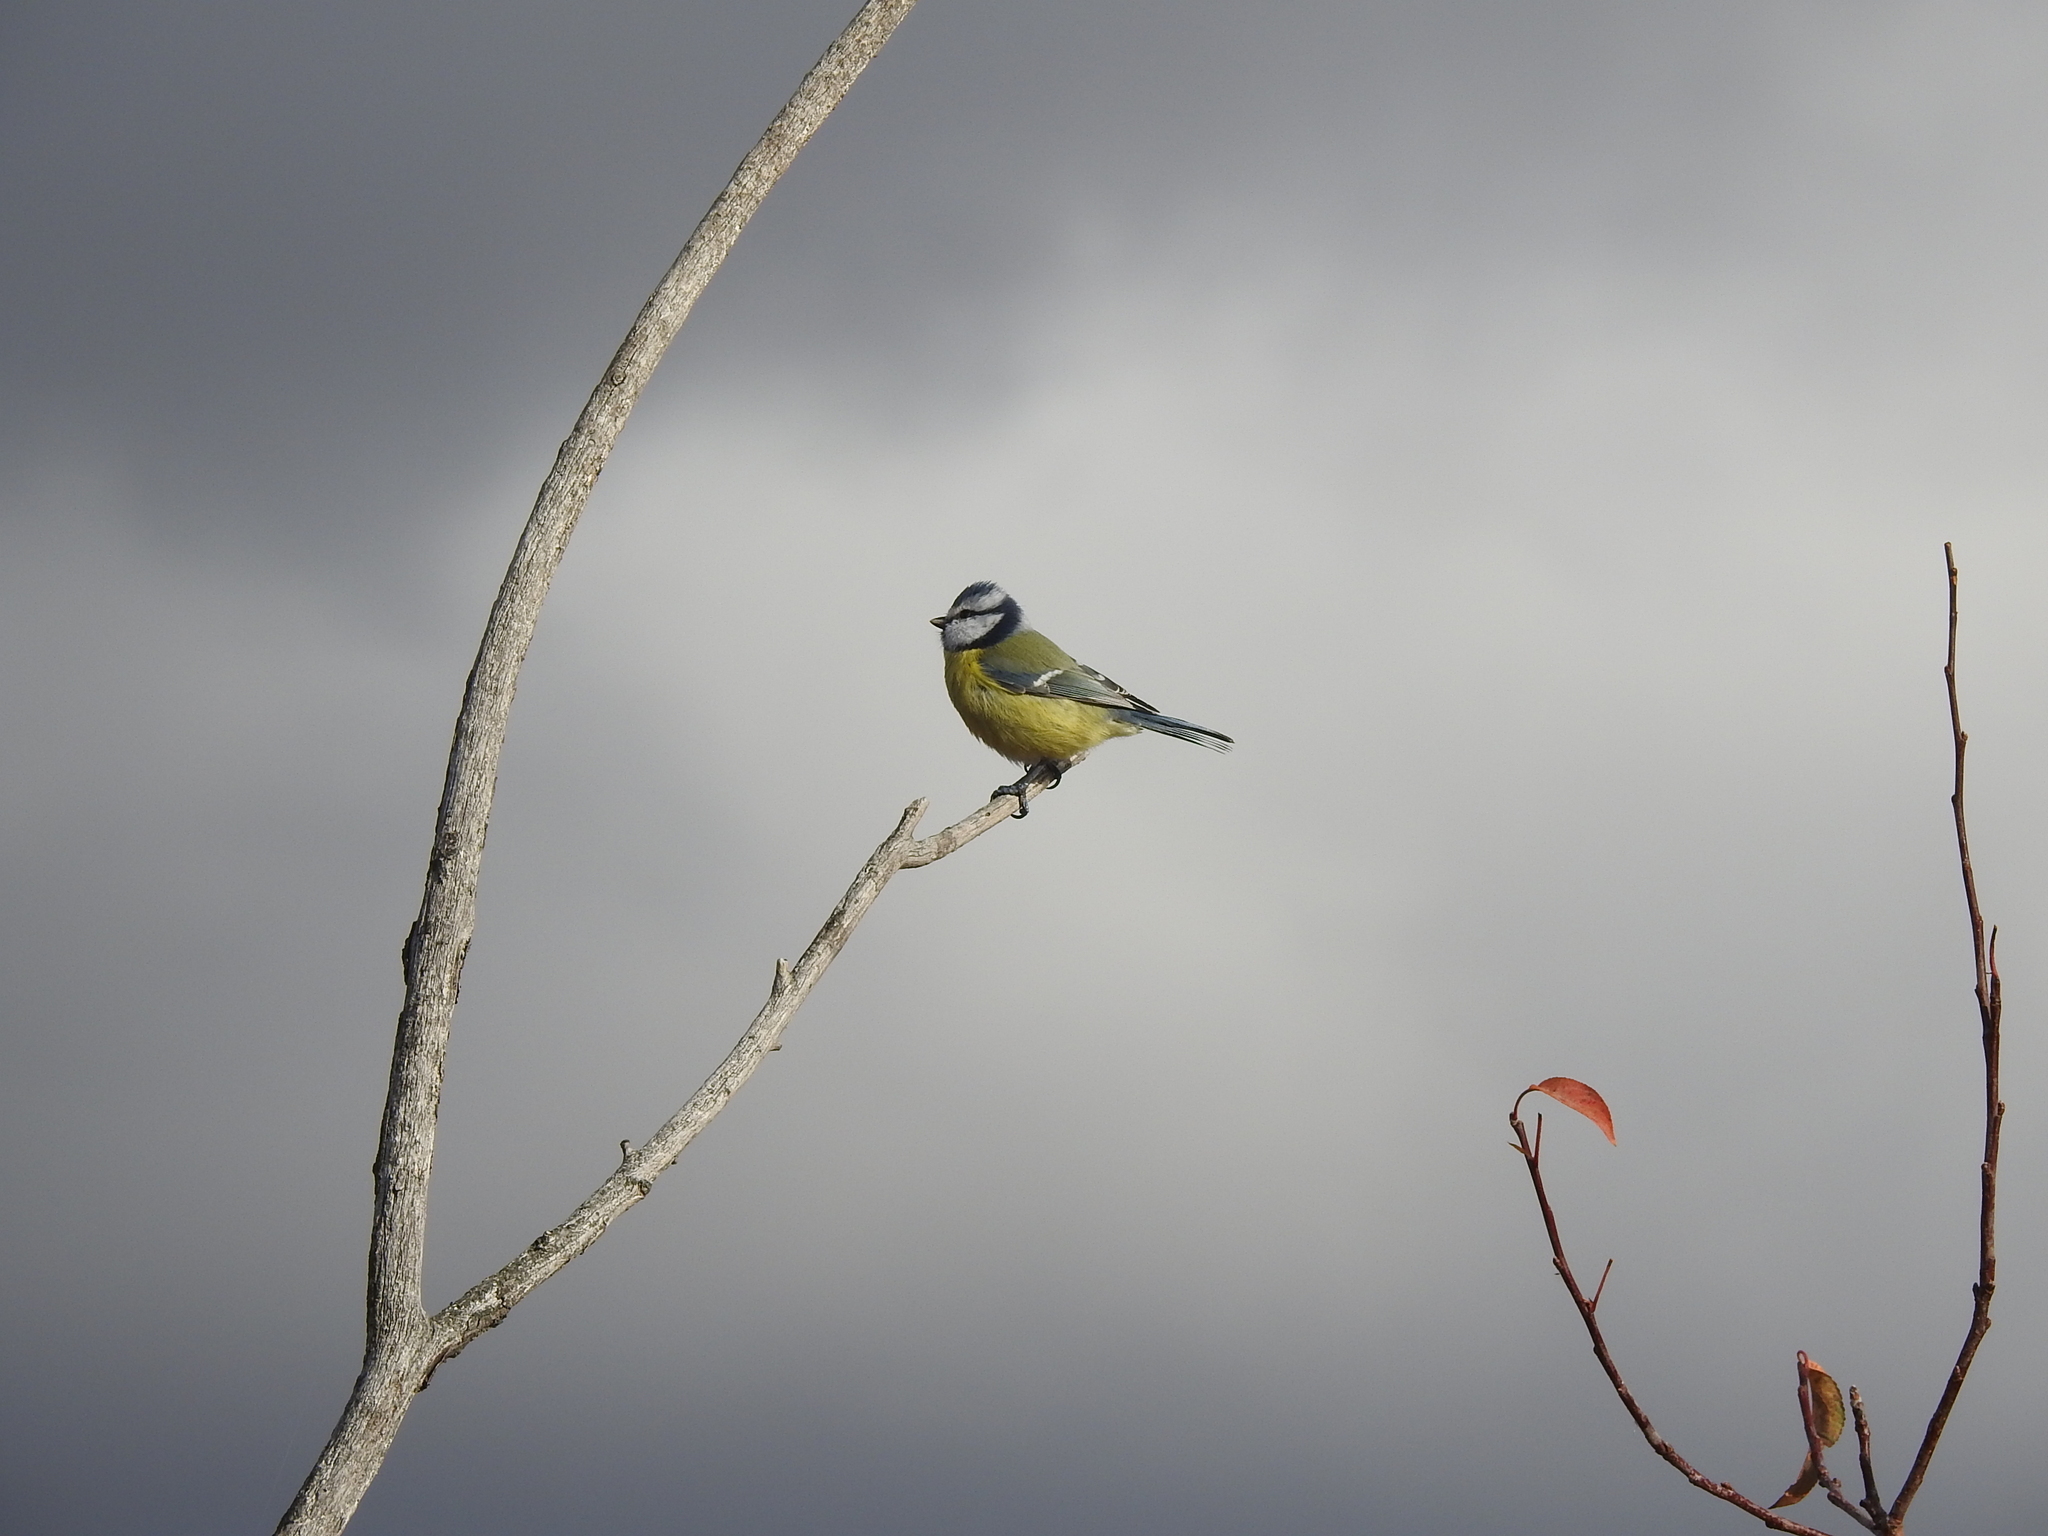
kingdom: Animalia
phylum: Chordata
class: Aves
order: Passeriformes
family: Paridae
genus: Cyanistes
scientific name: Cyanistes caeruleus
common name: Eurasian blue tit
